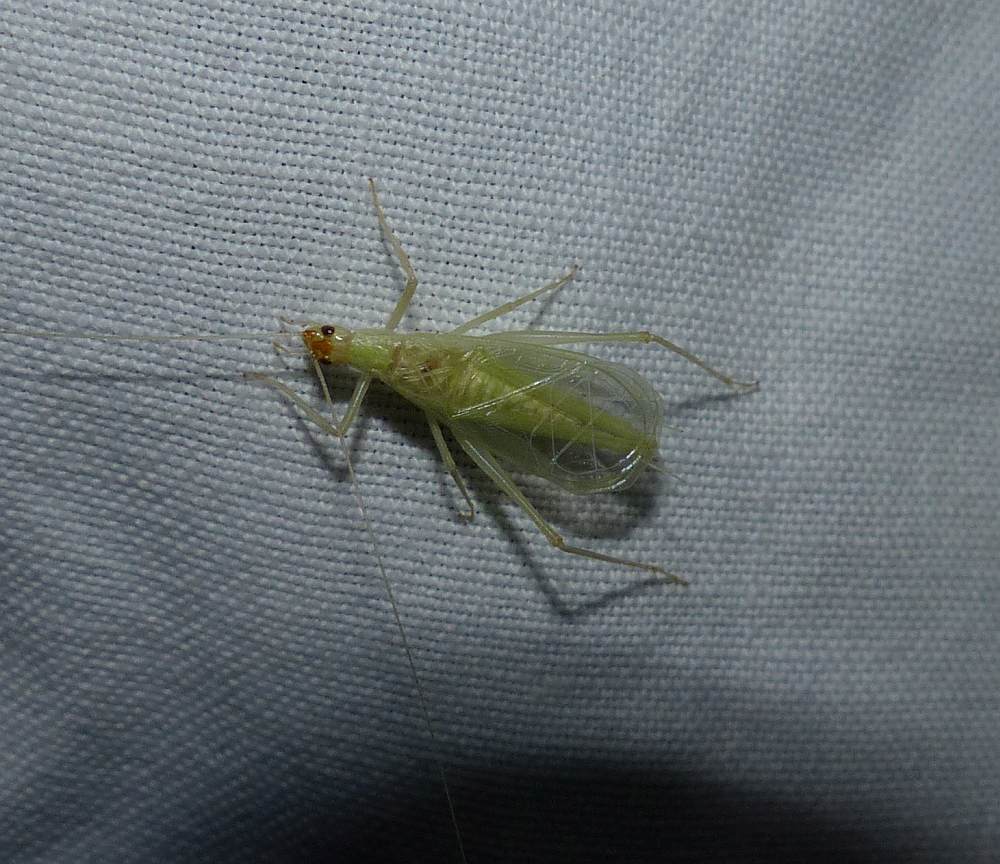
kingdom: Animalia
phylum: Arthropoda
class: Insecta
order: Orthoptera
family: Gryllidae
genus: Oecanthus
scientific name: Oecanthus fultoni
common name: Snowy tree cricket
